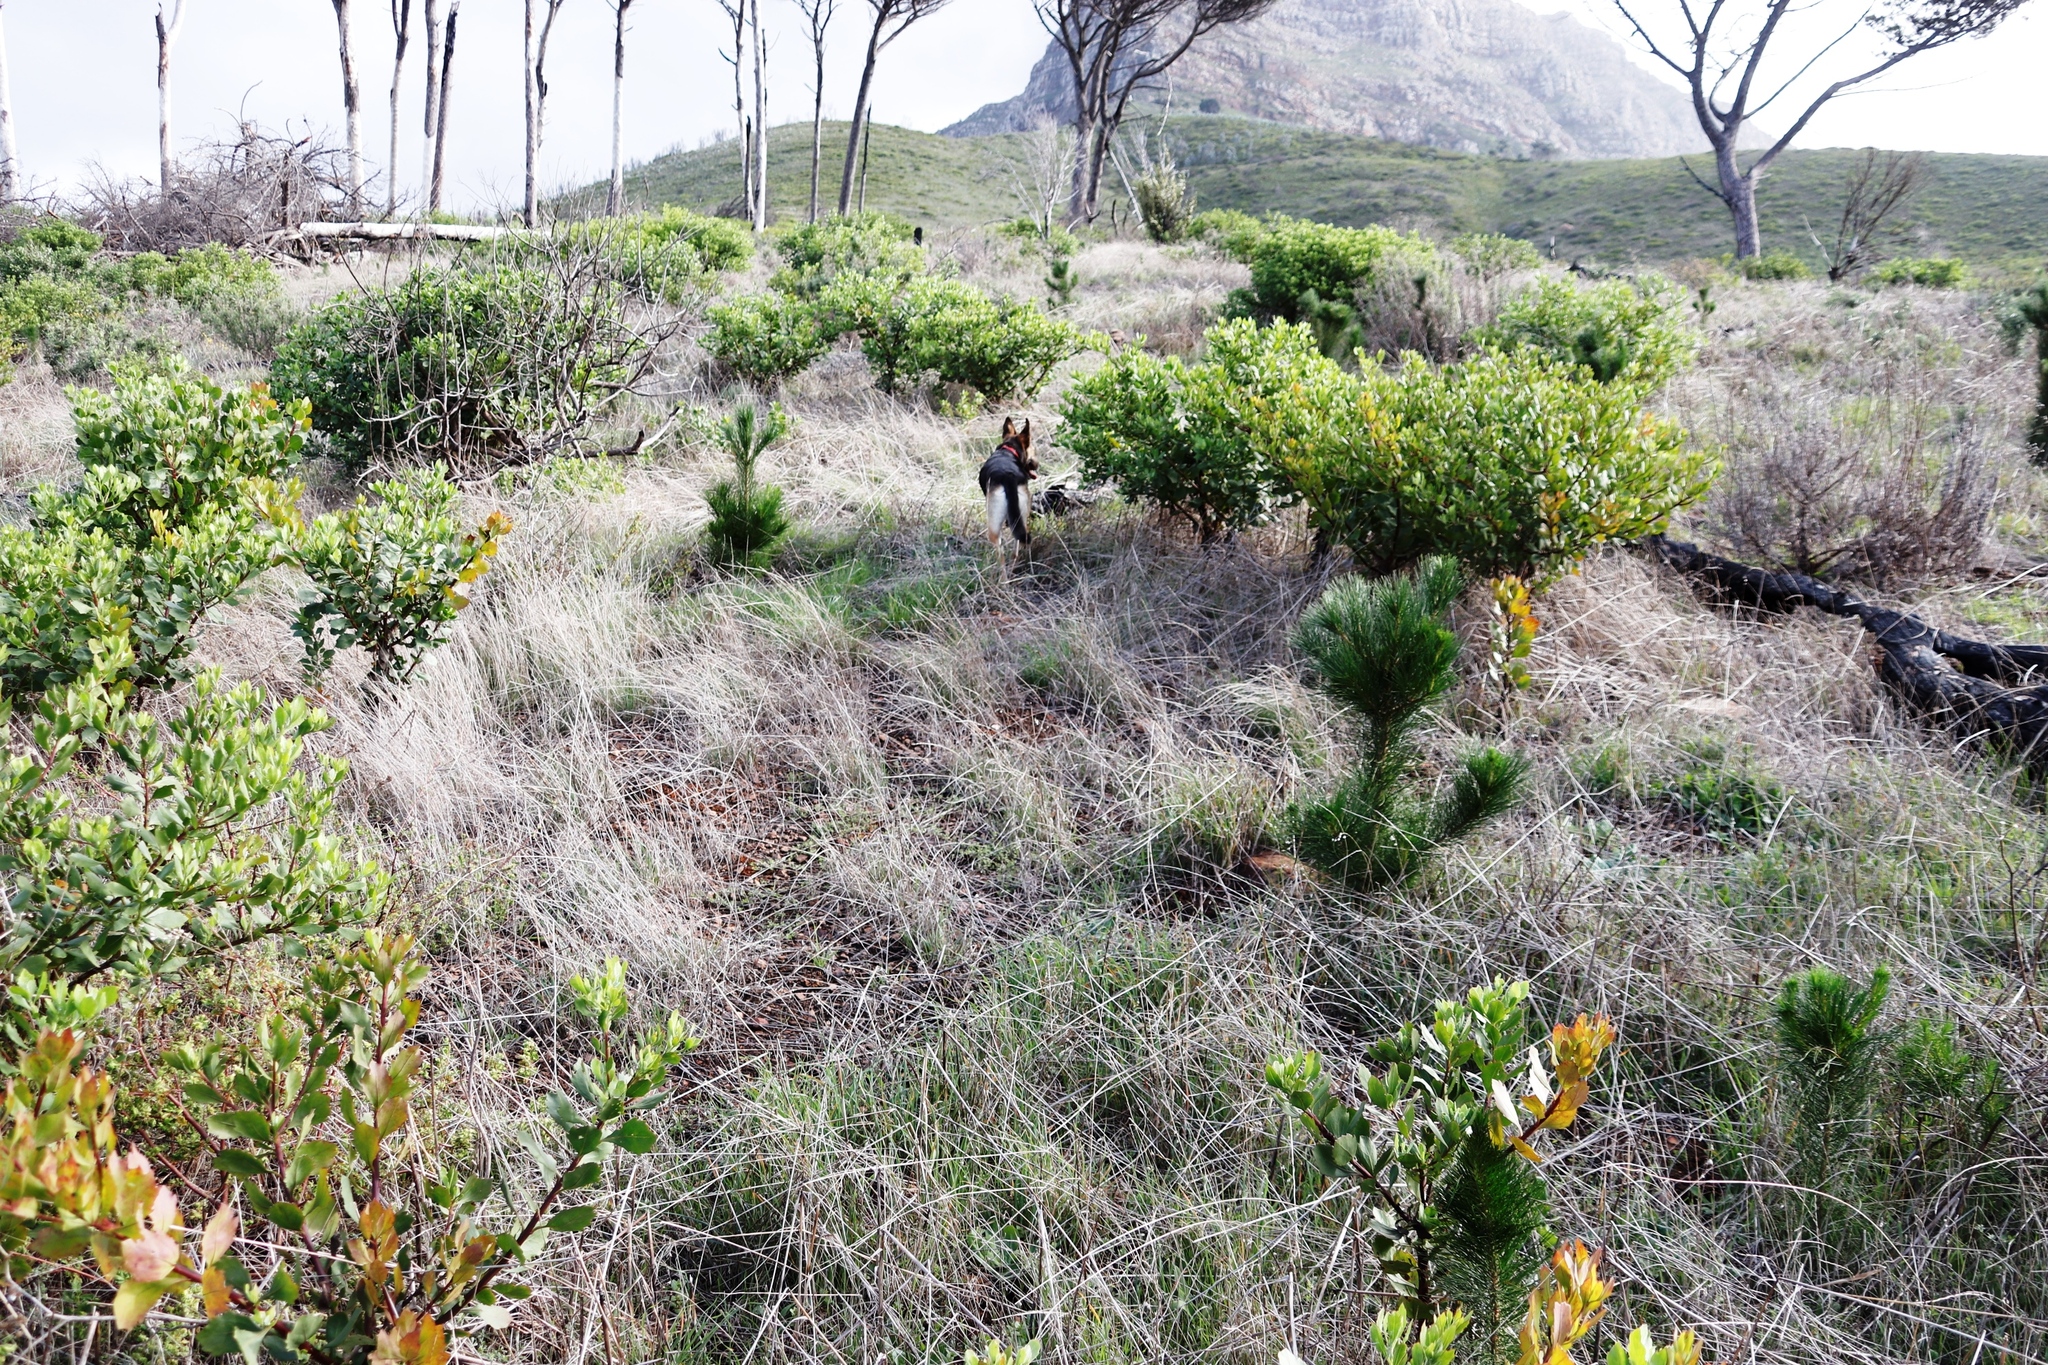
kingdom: Plantae
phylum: Tracheophyta
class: Pinopsida
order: Pinales
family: Pinaceae
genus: Pinus
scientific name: Pinus pinea
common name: Italian stone pine
